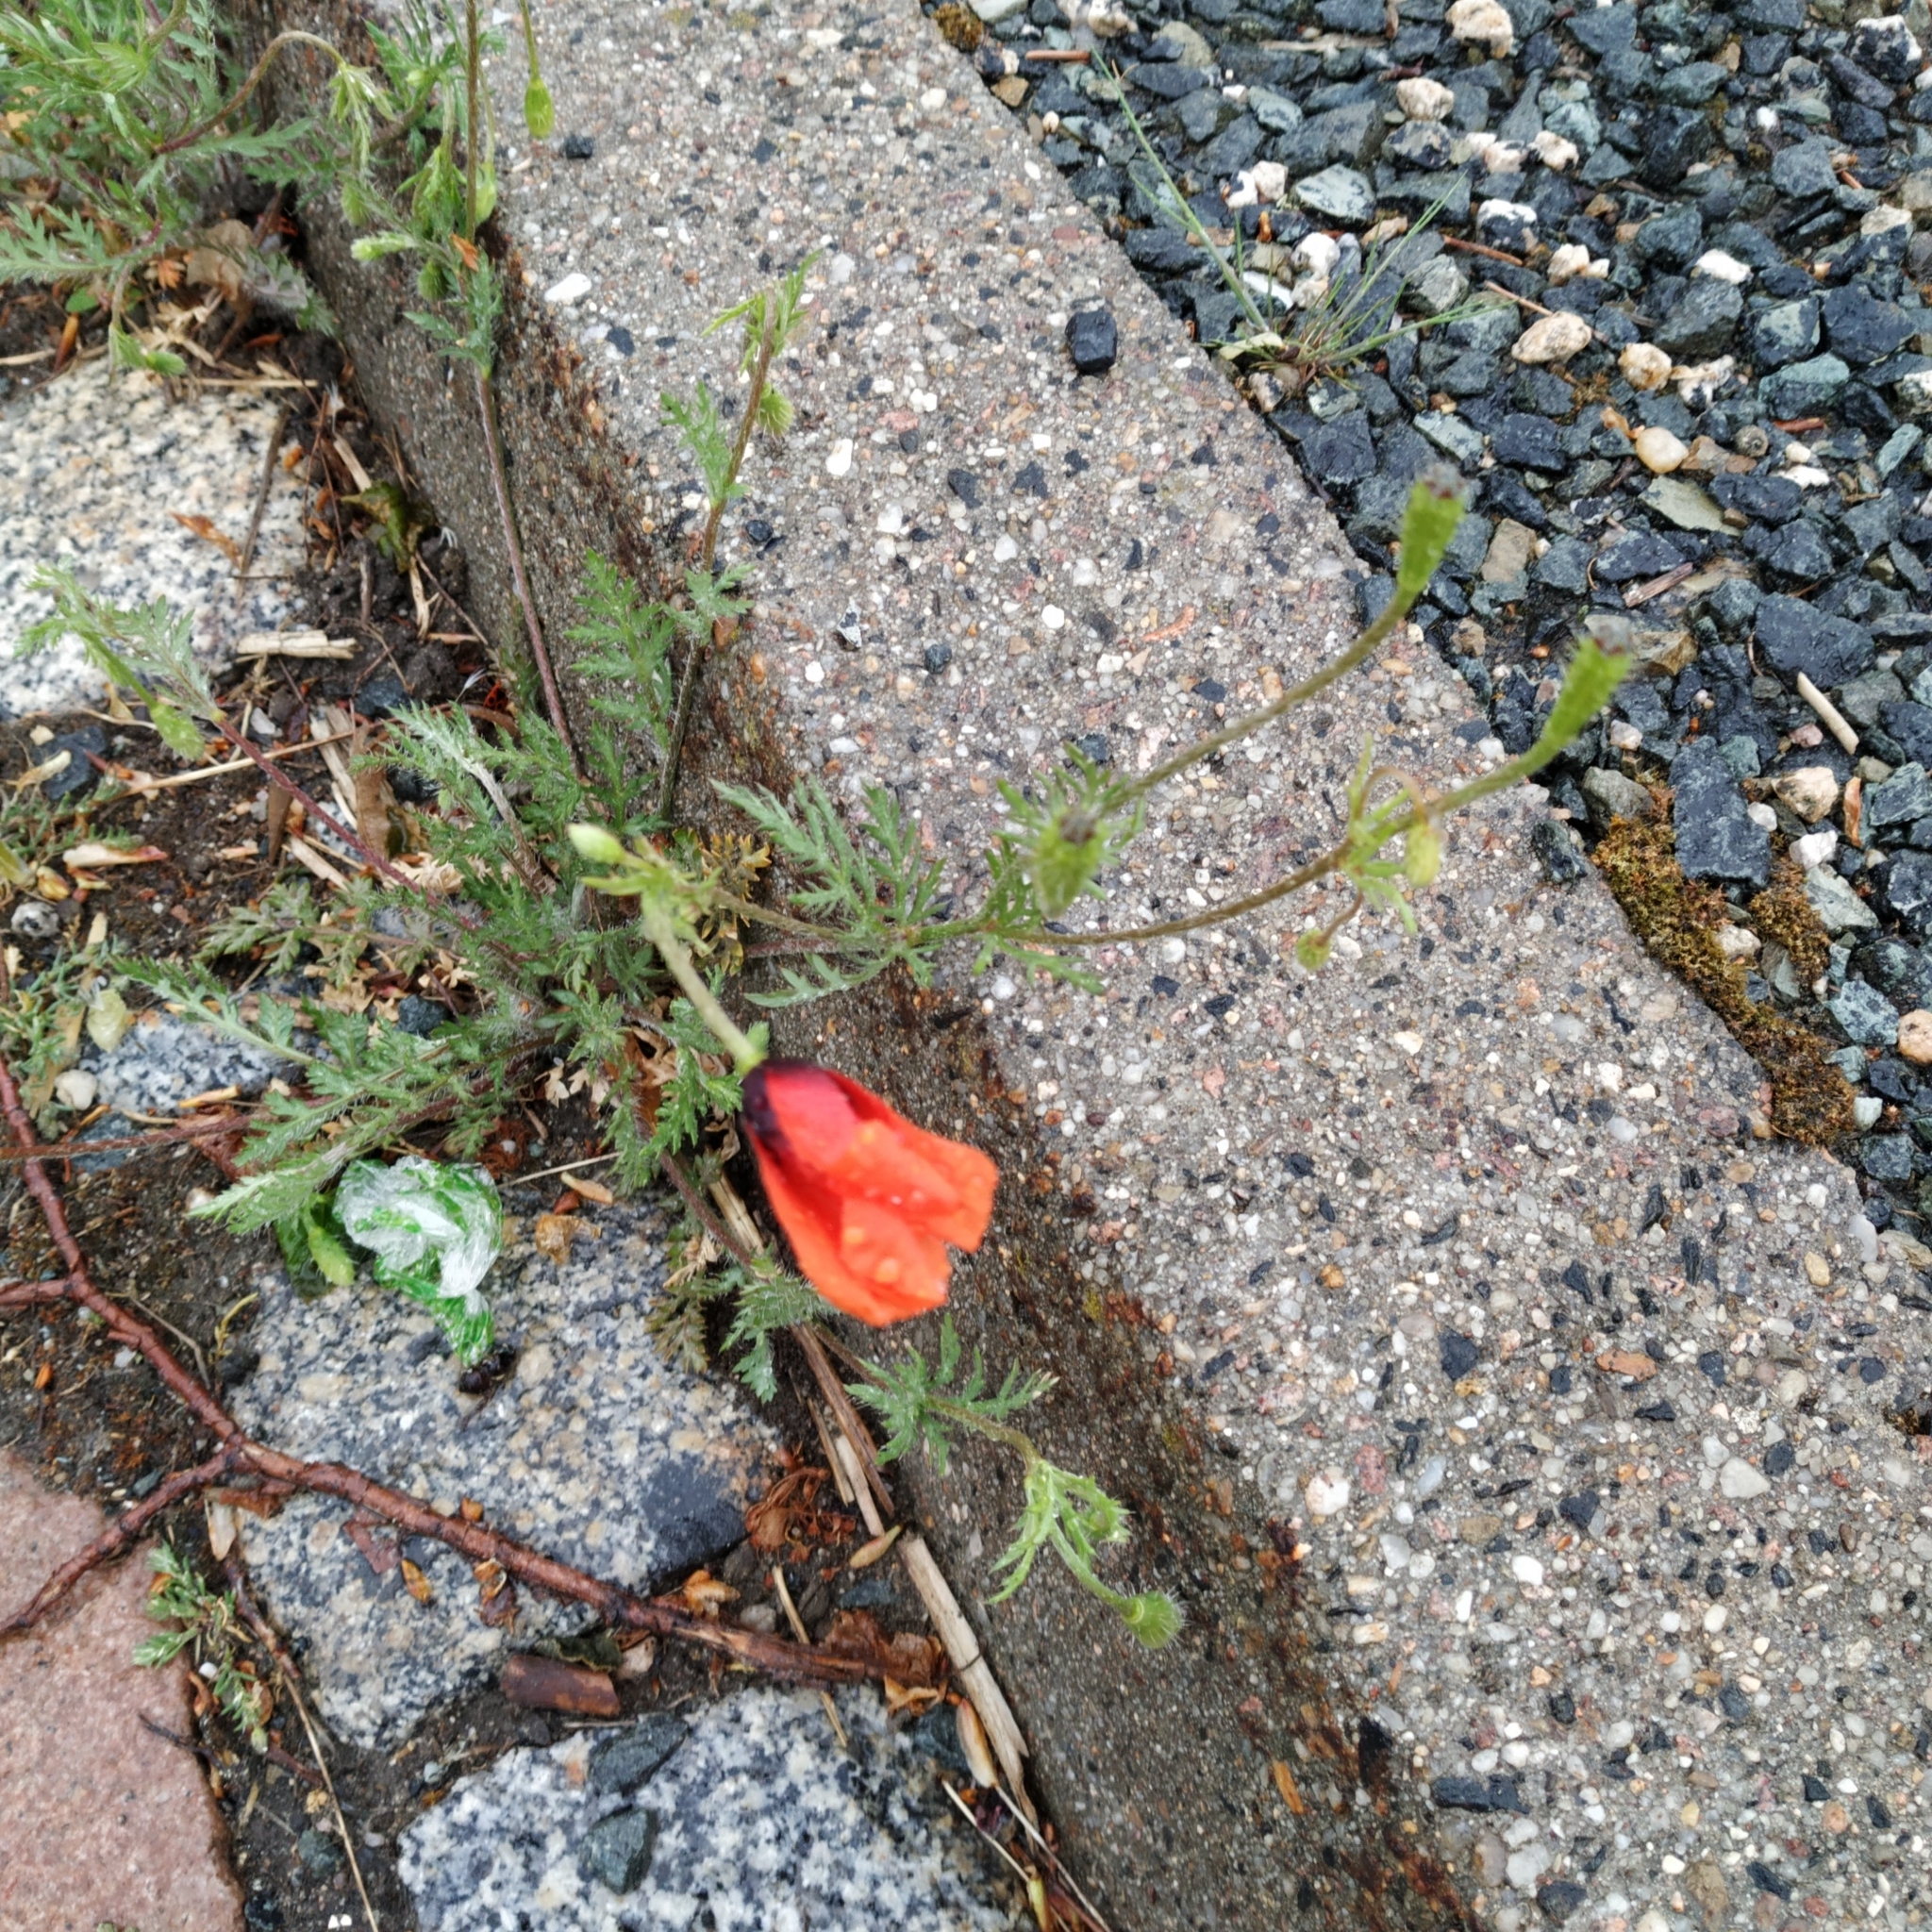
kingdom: Plantae
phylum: Tracheophyta
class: Magnoliopsida
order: Ranunculales
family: Papaveraceae
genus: Roemeria
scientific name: Roemeria argemone
